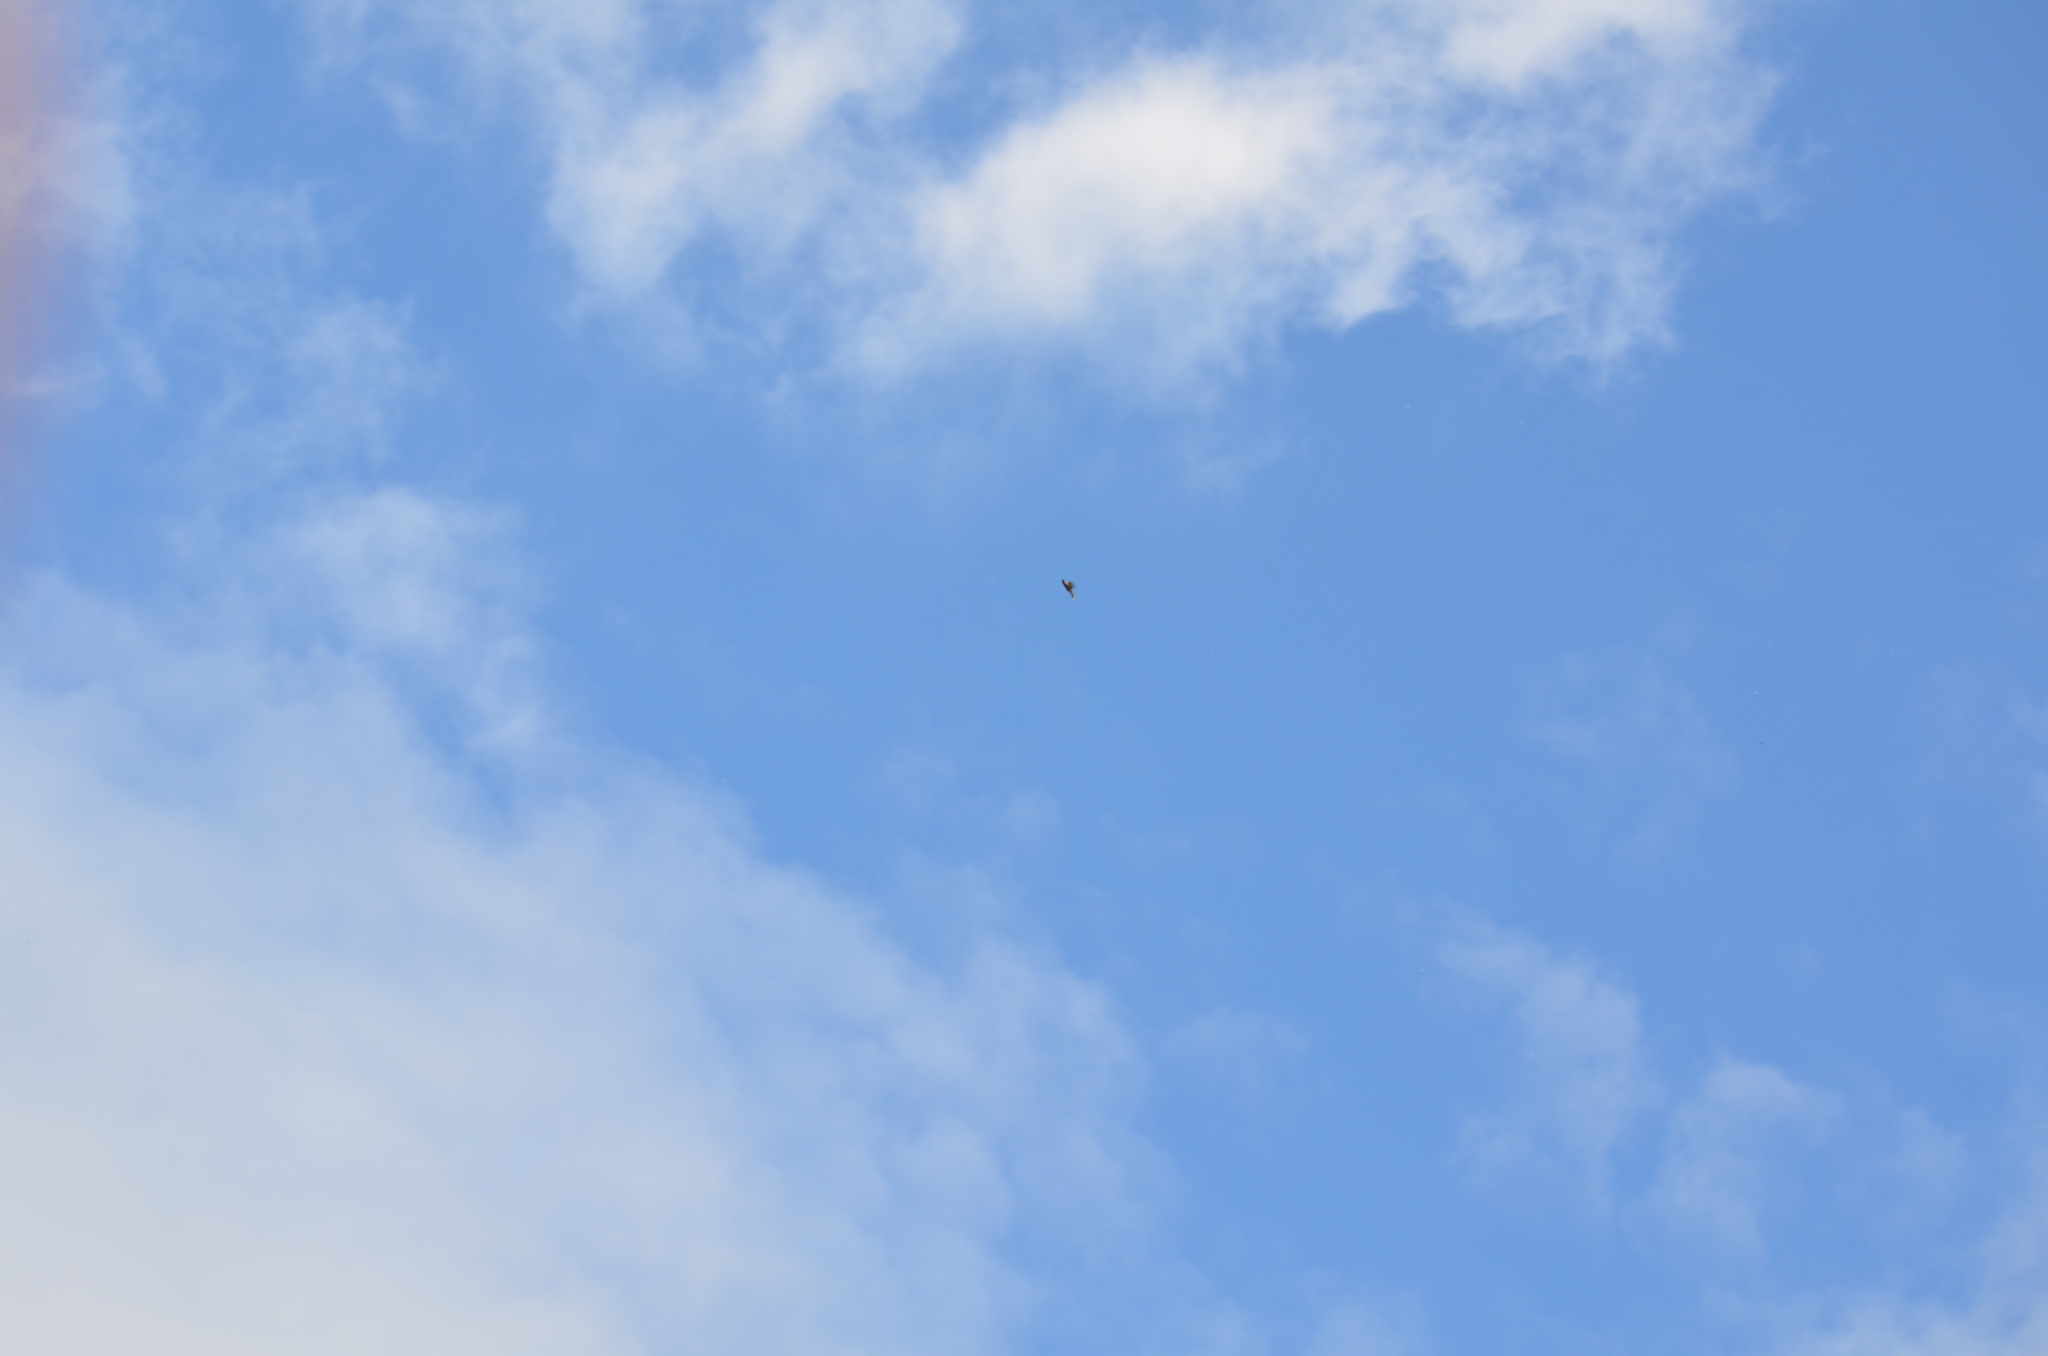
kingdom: Animalia
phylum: Chordata
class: Aves
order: Passeriformes
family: Bombycillidae
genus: Bombycilla
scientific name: Bombycilla cedrorum
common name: Cedar waxwing
